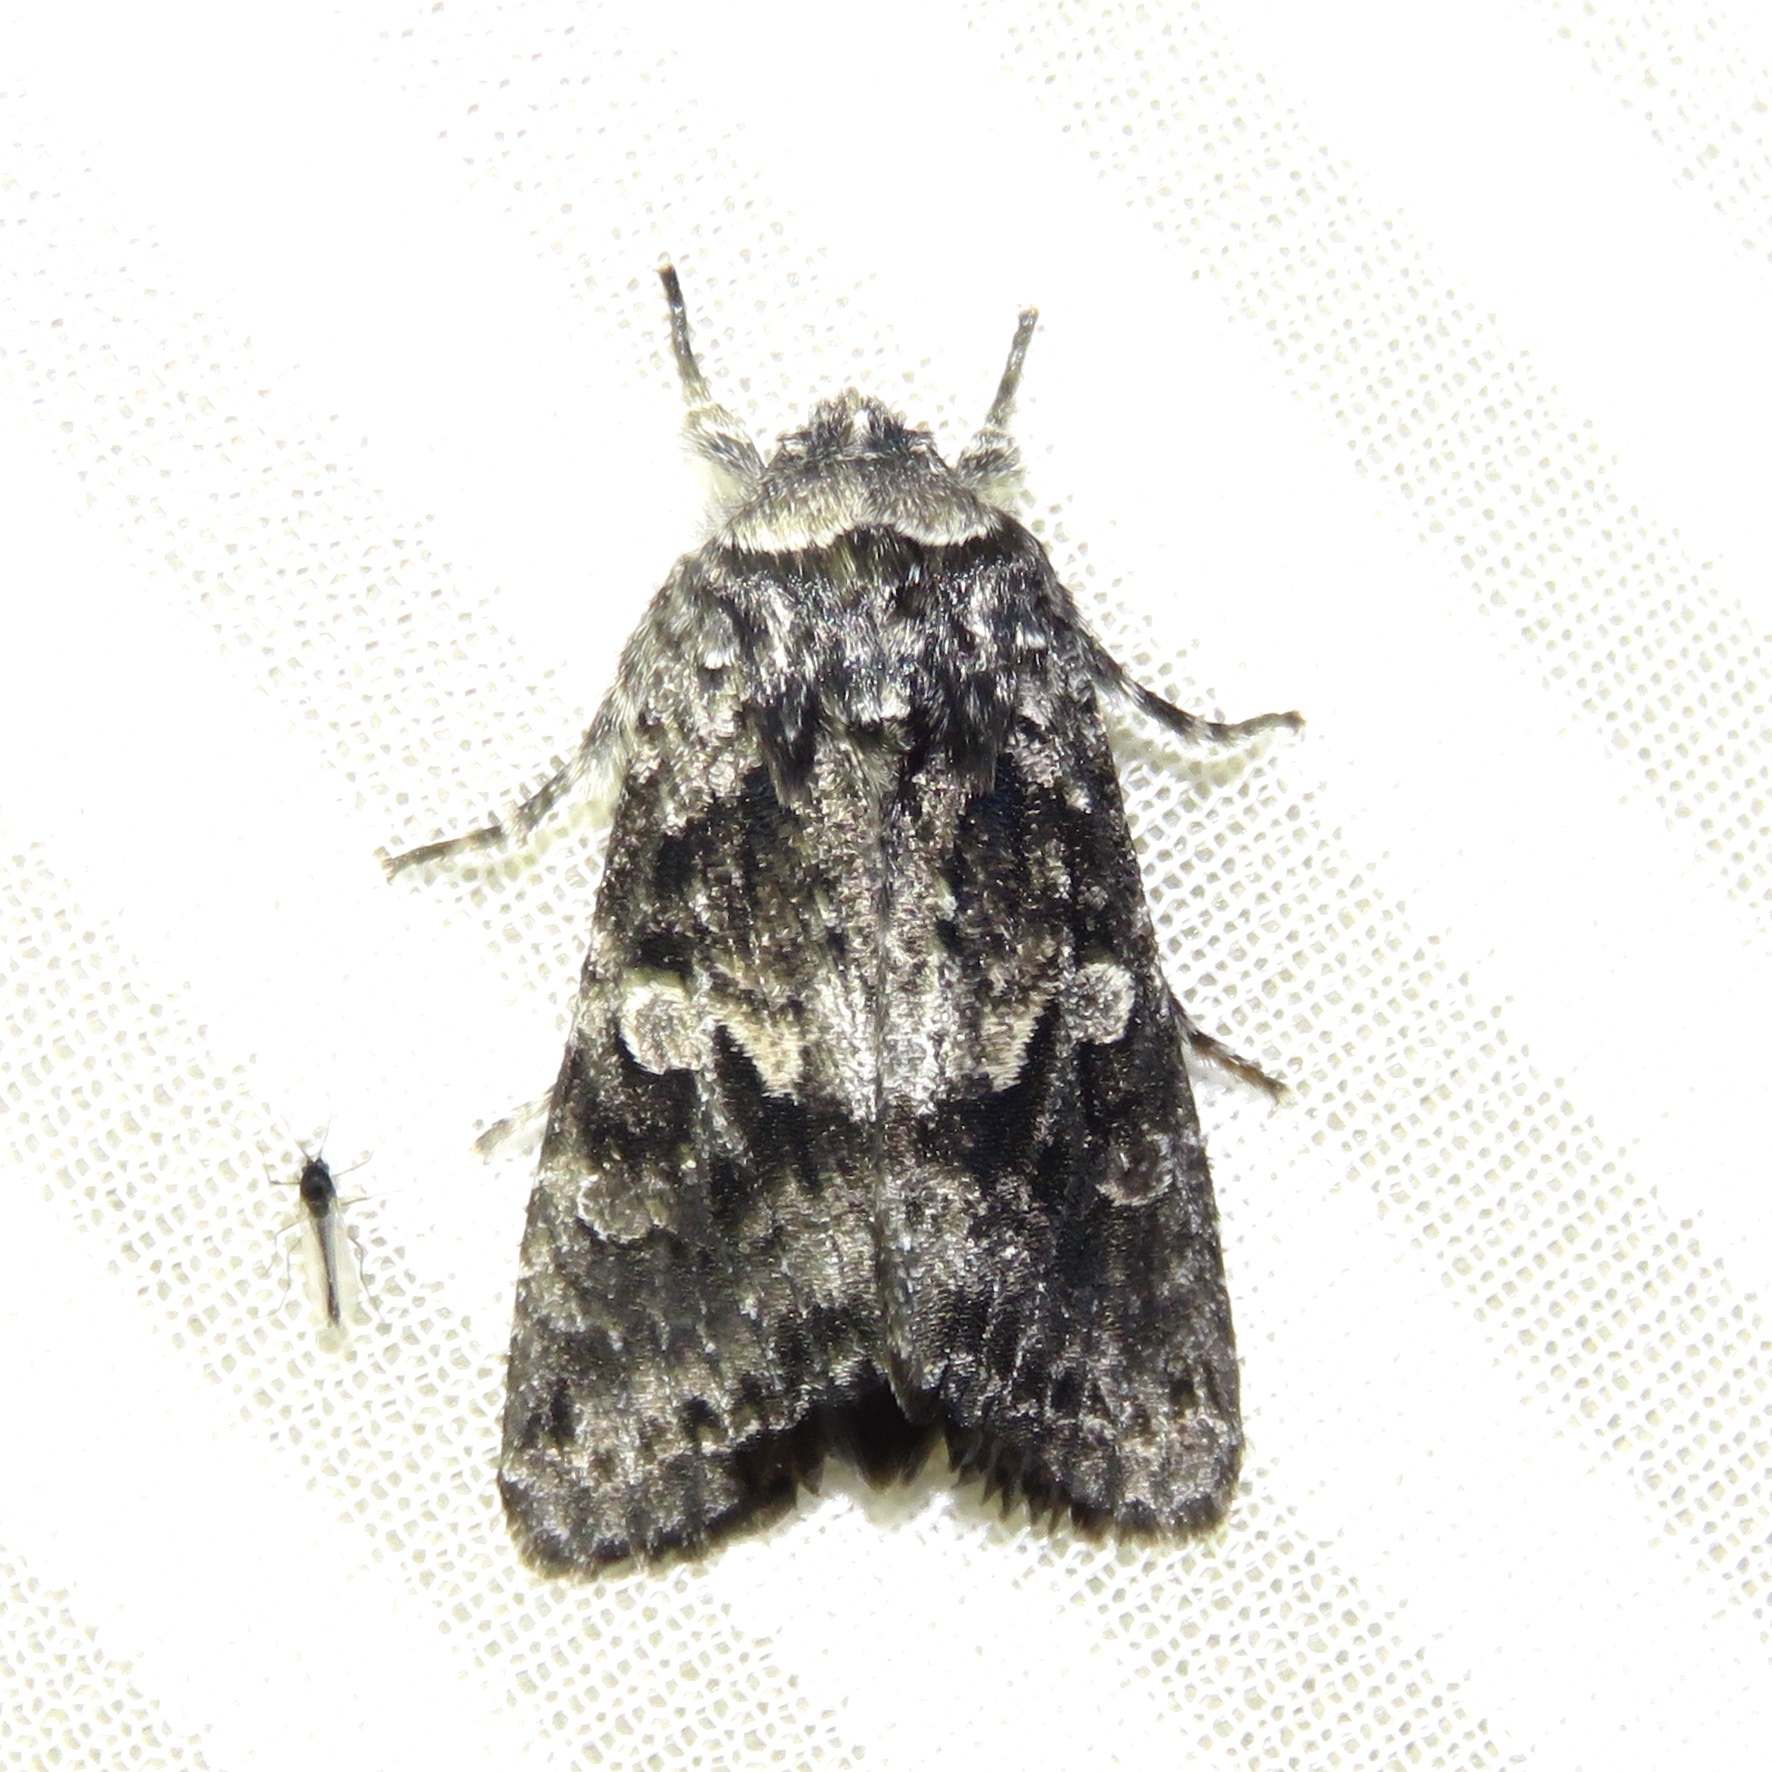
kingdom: Animalia
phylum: Arthropoda
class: Insecta
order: Lepidoptera
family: Noctuidae
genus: Egira
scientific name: Egira dolosa
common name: Lined black aspen cat.
